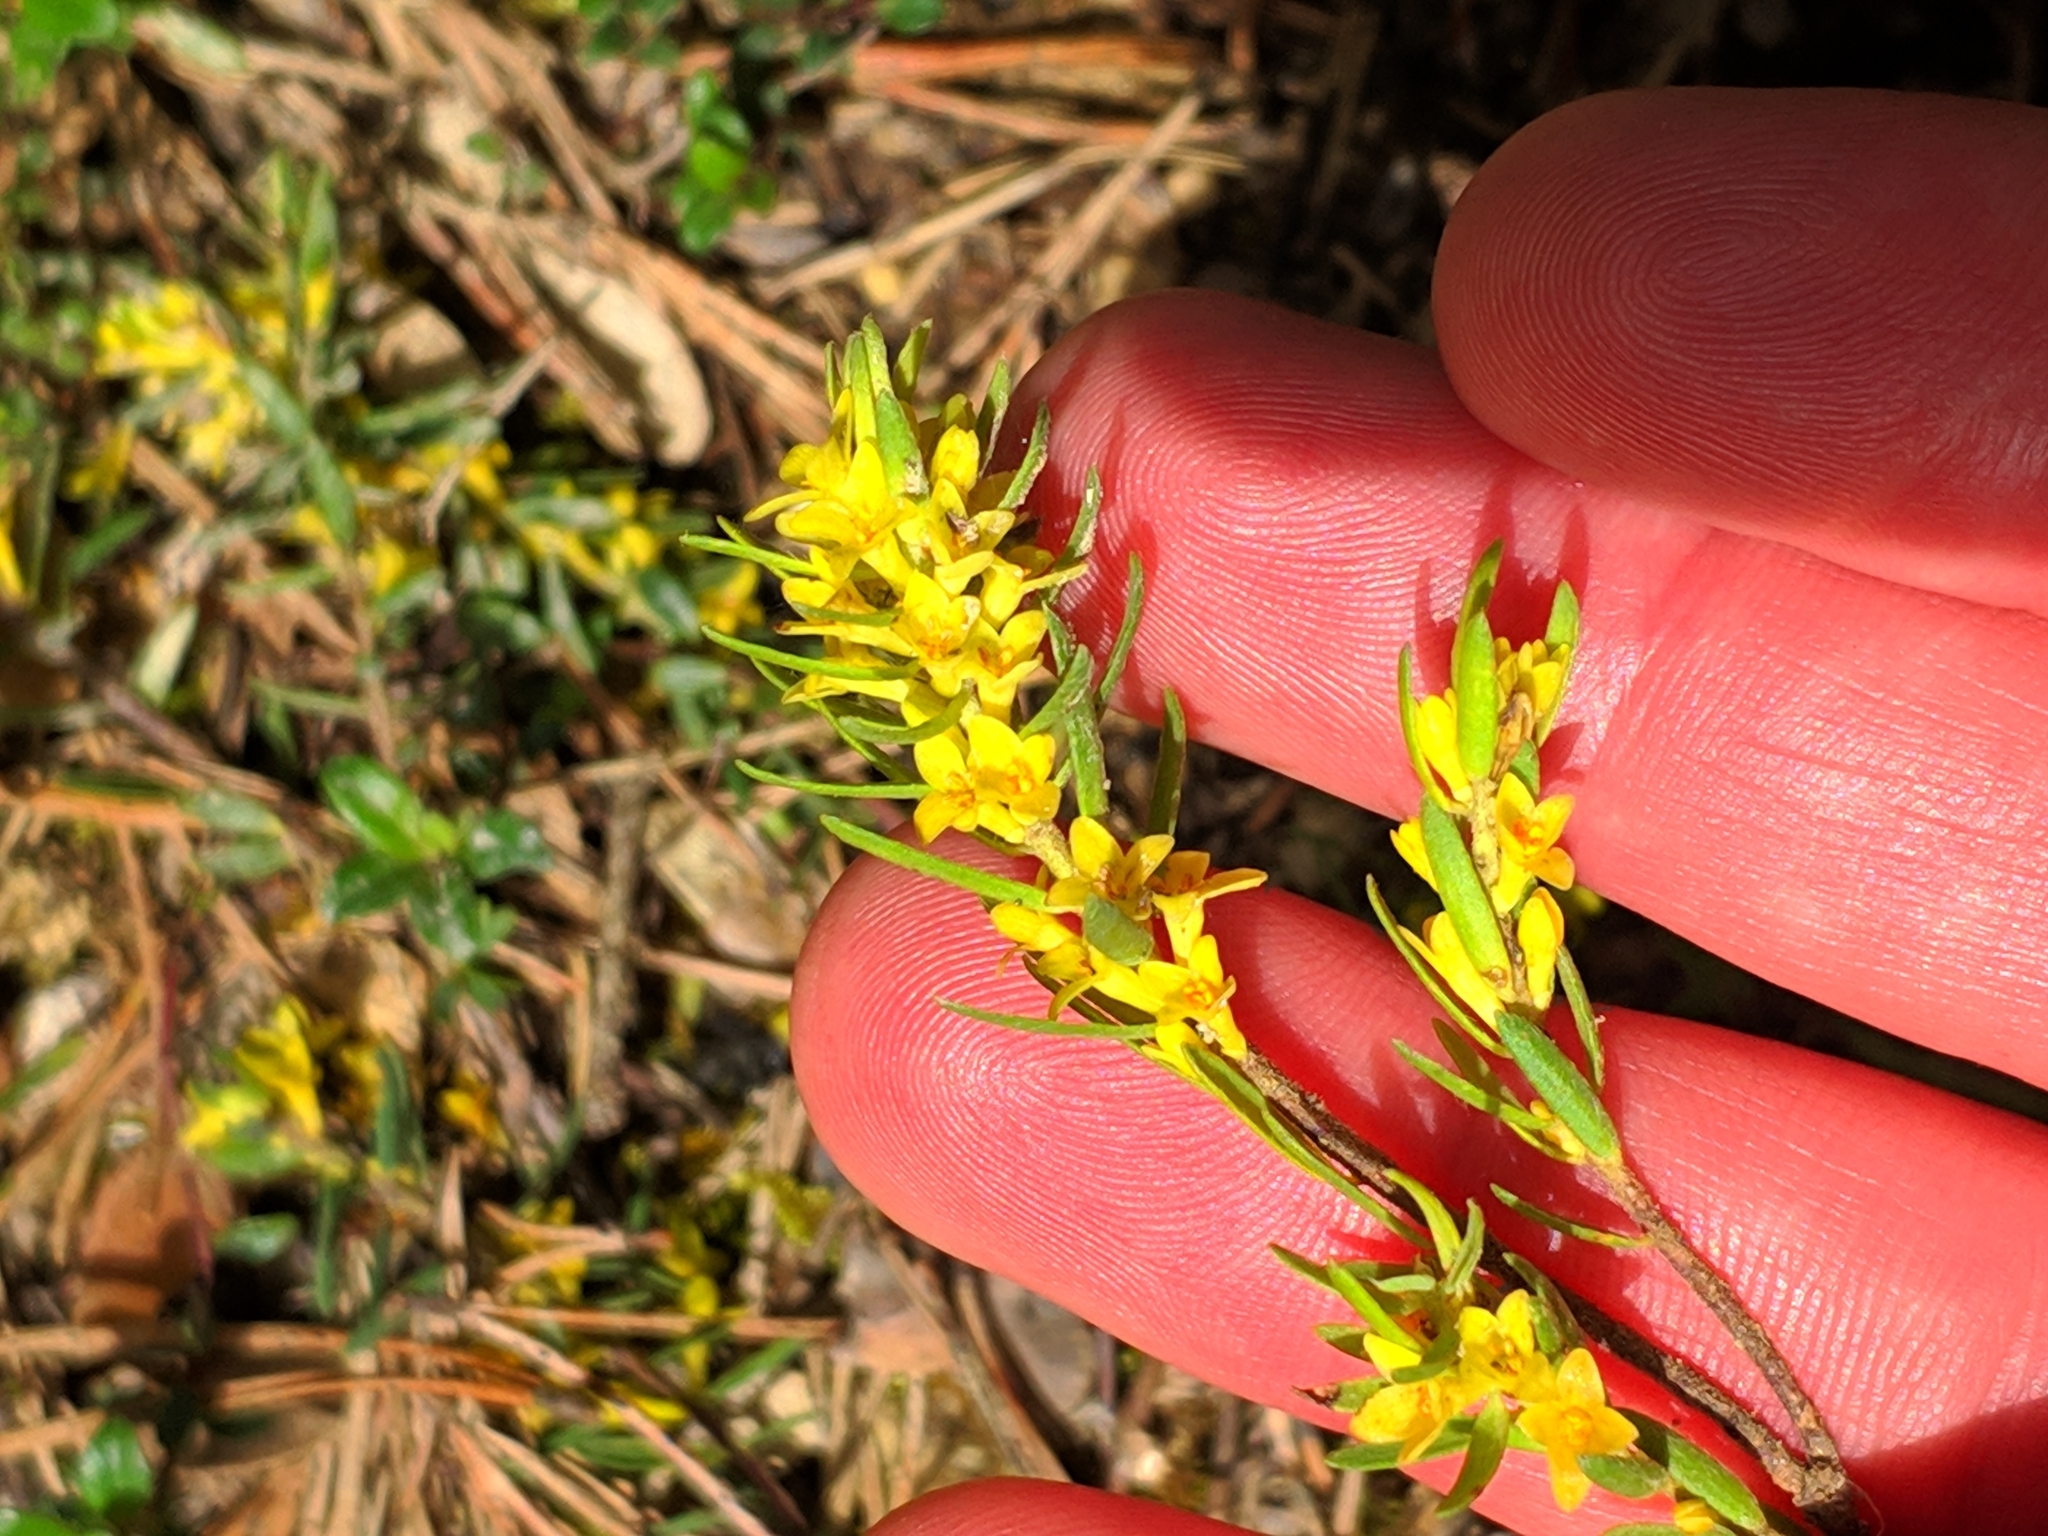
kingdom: Plantae
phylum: Tracheophyta
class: Magnoliopsida
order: Malvales
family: Thymelaeaceae
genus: Thymelaea
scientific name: Thymelaea ruizii
